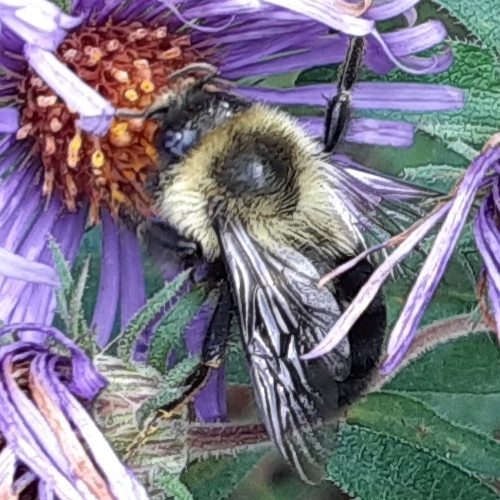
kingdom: Animalia
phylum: Arthropoda
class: Insecta
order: Hymenoptera
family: Apidae
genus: Bombus
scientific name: Bombus impatiens
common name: Common eastern bumble bee
